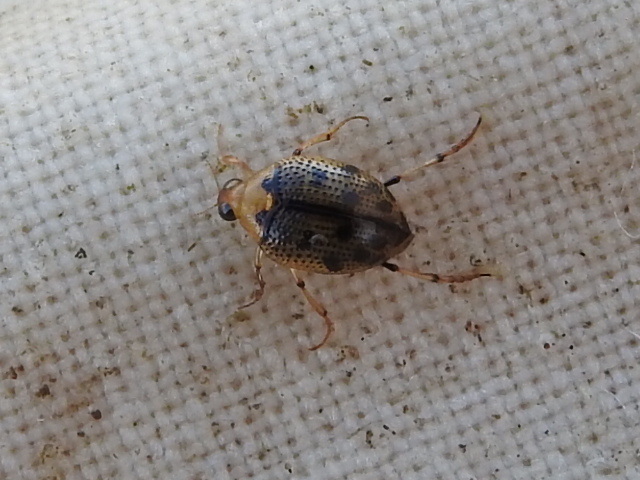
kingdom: Animalia
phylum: Arthropoda
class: Insecta
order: Coleoptera
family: Haliplidae
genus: Peltodytes
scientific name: Peltodytes sexmaculatus
